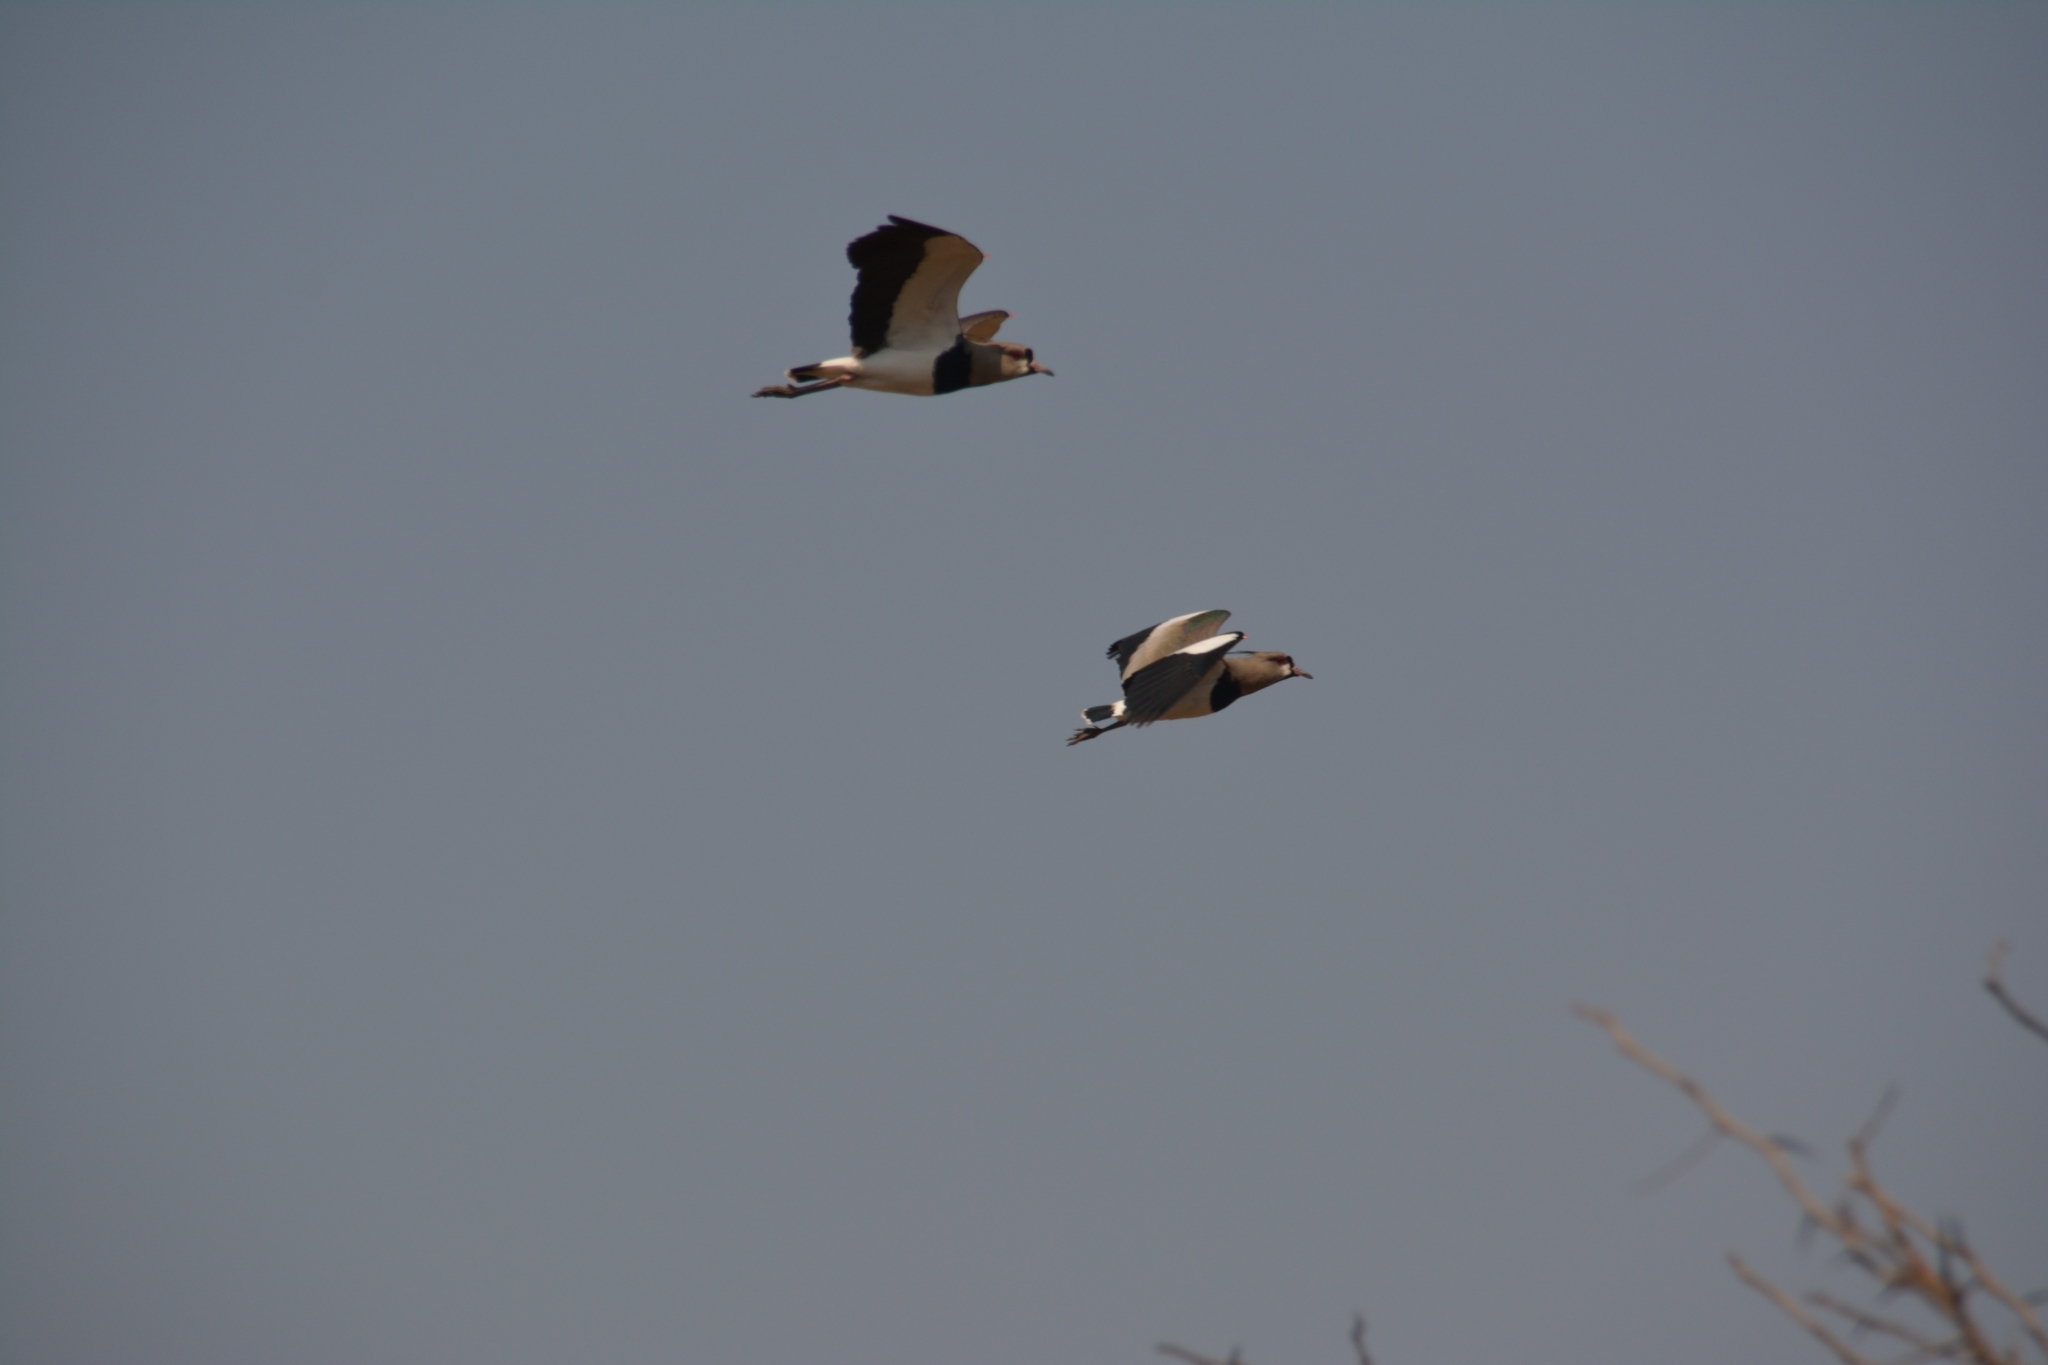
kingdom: Animalia
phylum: Chordata
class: Aves
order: Charadriiformes
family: Charadriidae
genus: Vanellus
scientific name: Vanellus chilensis
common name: Southern lapwing
